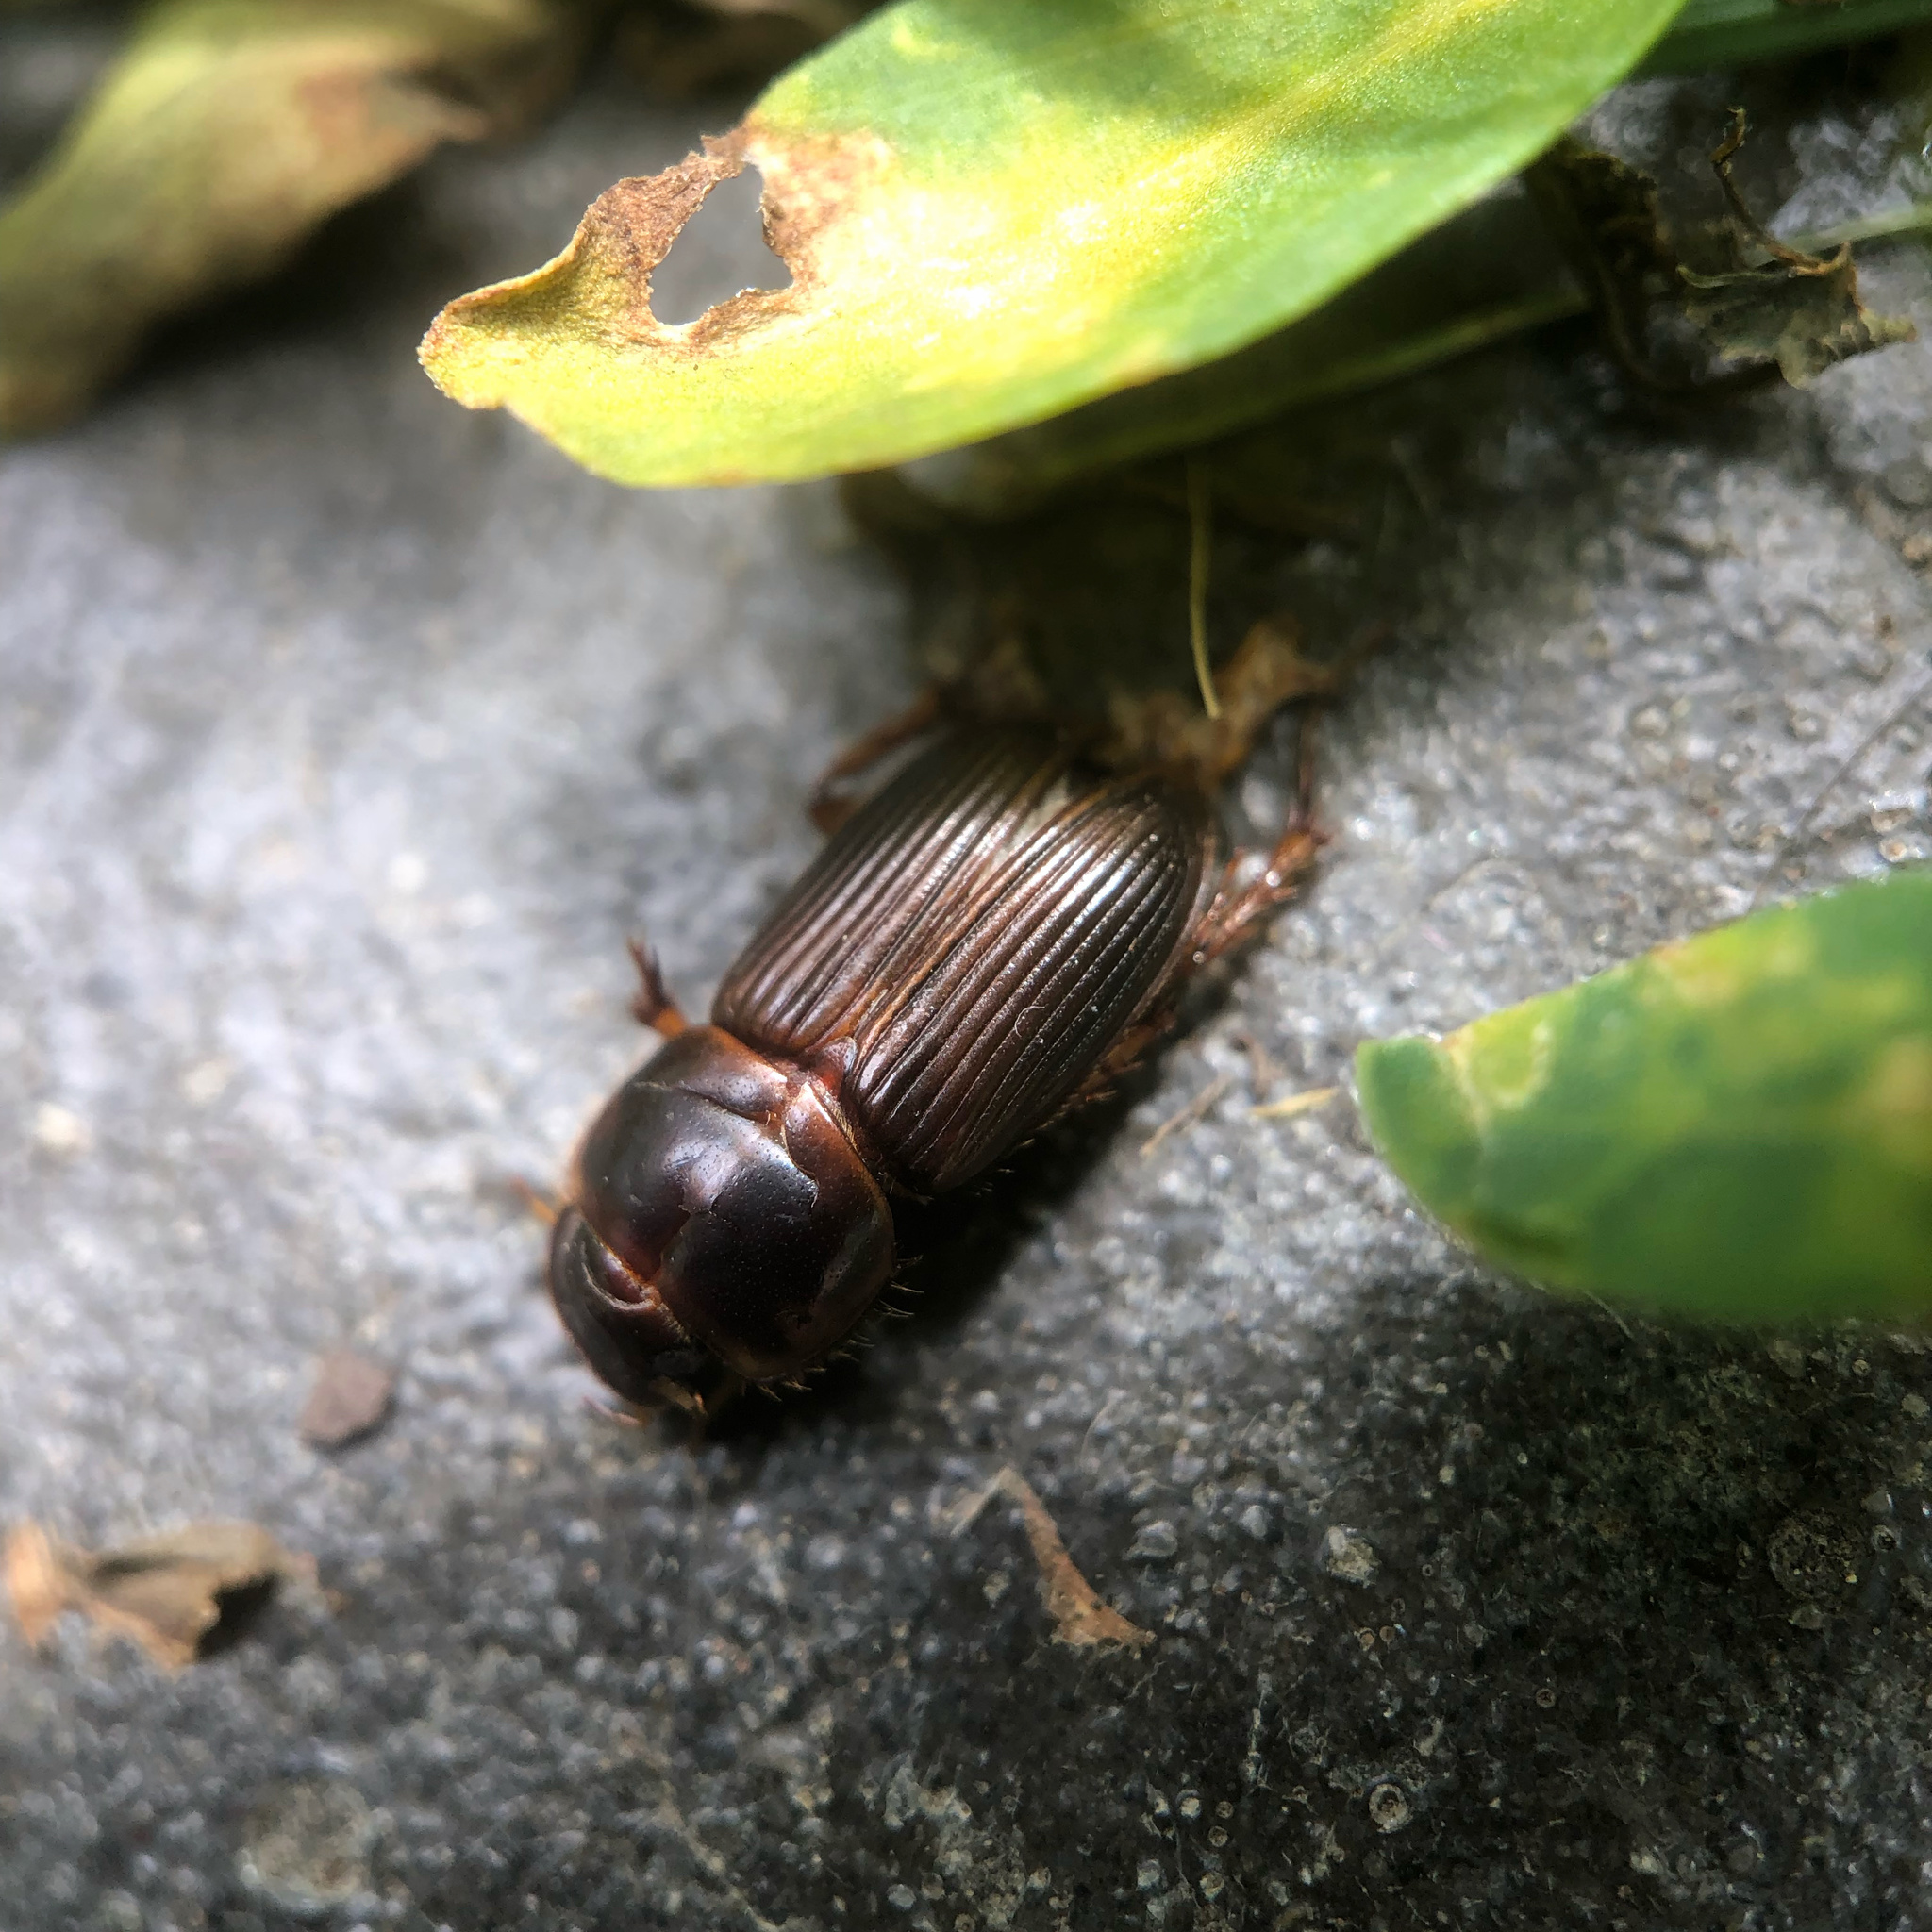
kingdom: Animalia
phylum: Arthropoda
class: Insecta
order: Coleoptera
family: Scarabaeidae
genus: Acrossidius
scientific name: Acrossidius tasmaniae
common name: Black-headed pasture cockchafer
